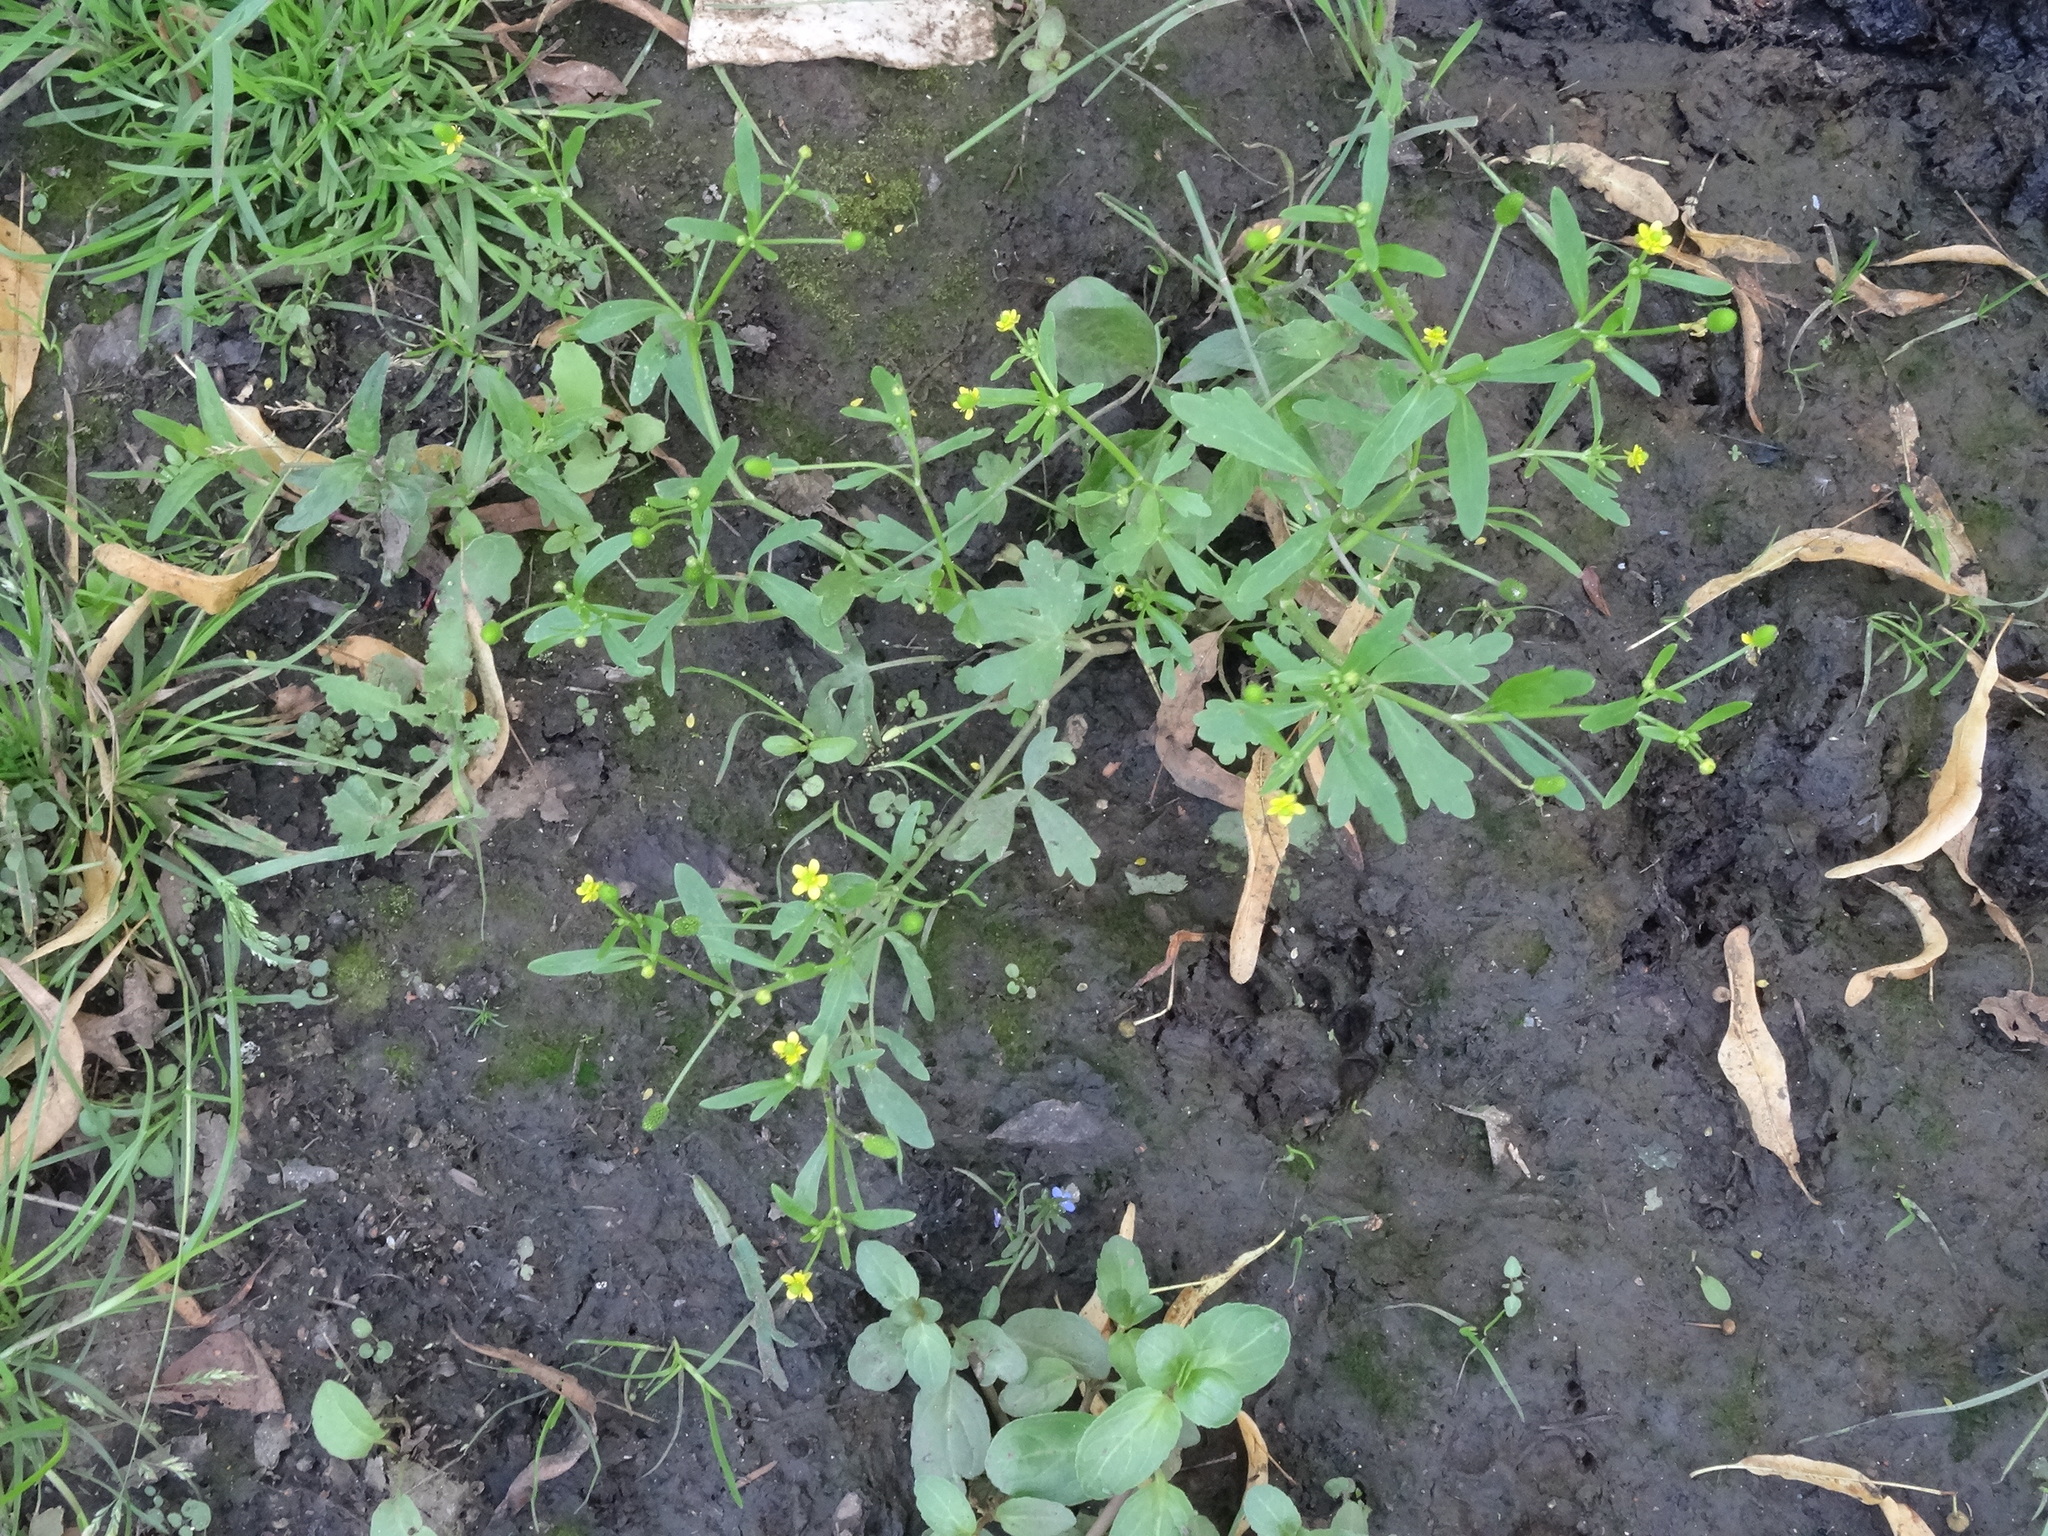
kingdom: Plantae
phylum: Tracheophyta
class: Magnoliopsida
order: Ranunculales
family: Ranunculaceae
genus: Ranunculus
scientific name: Ranunculus sceleratus
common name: Celery-leaved buttercup
